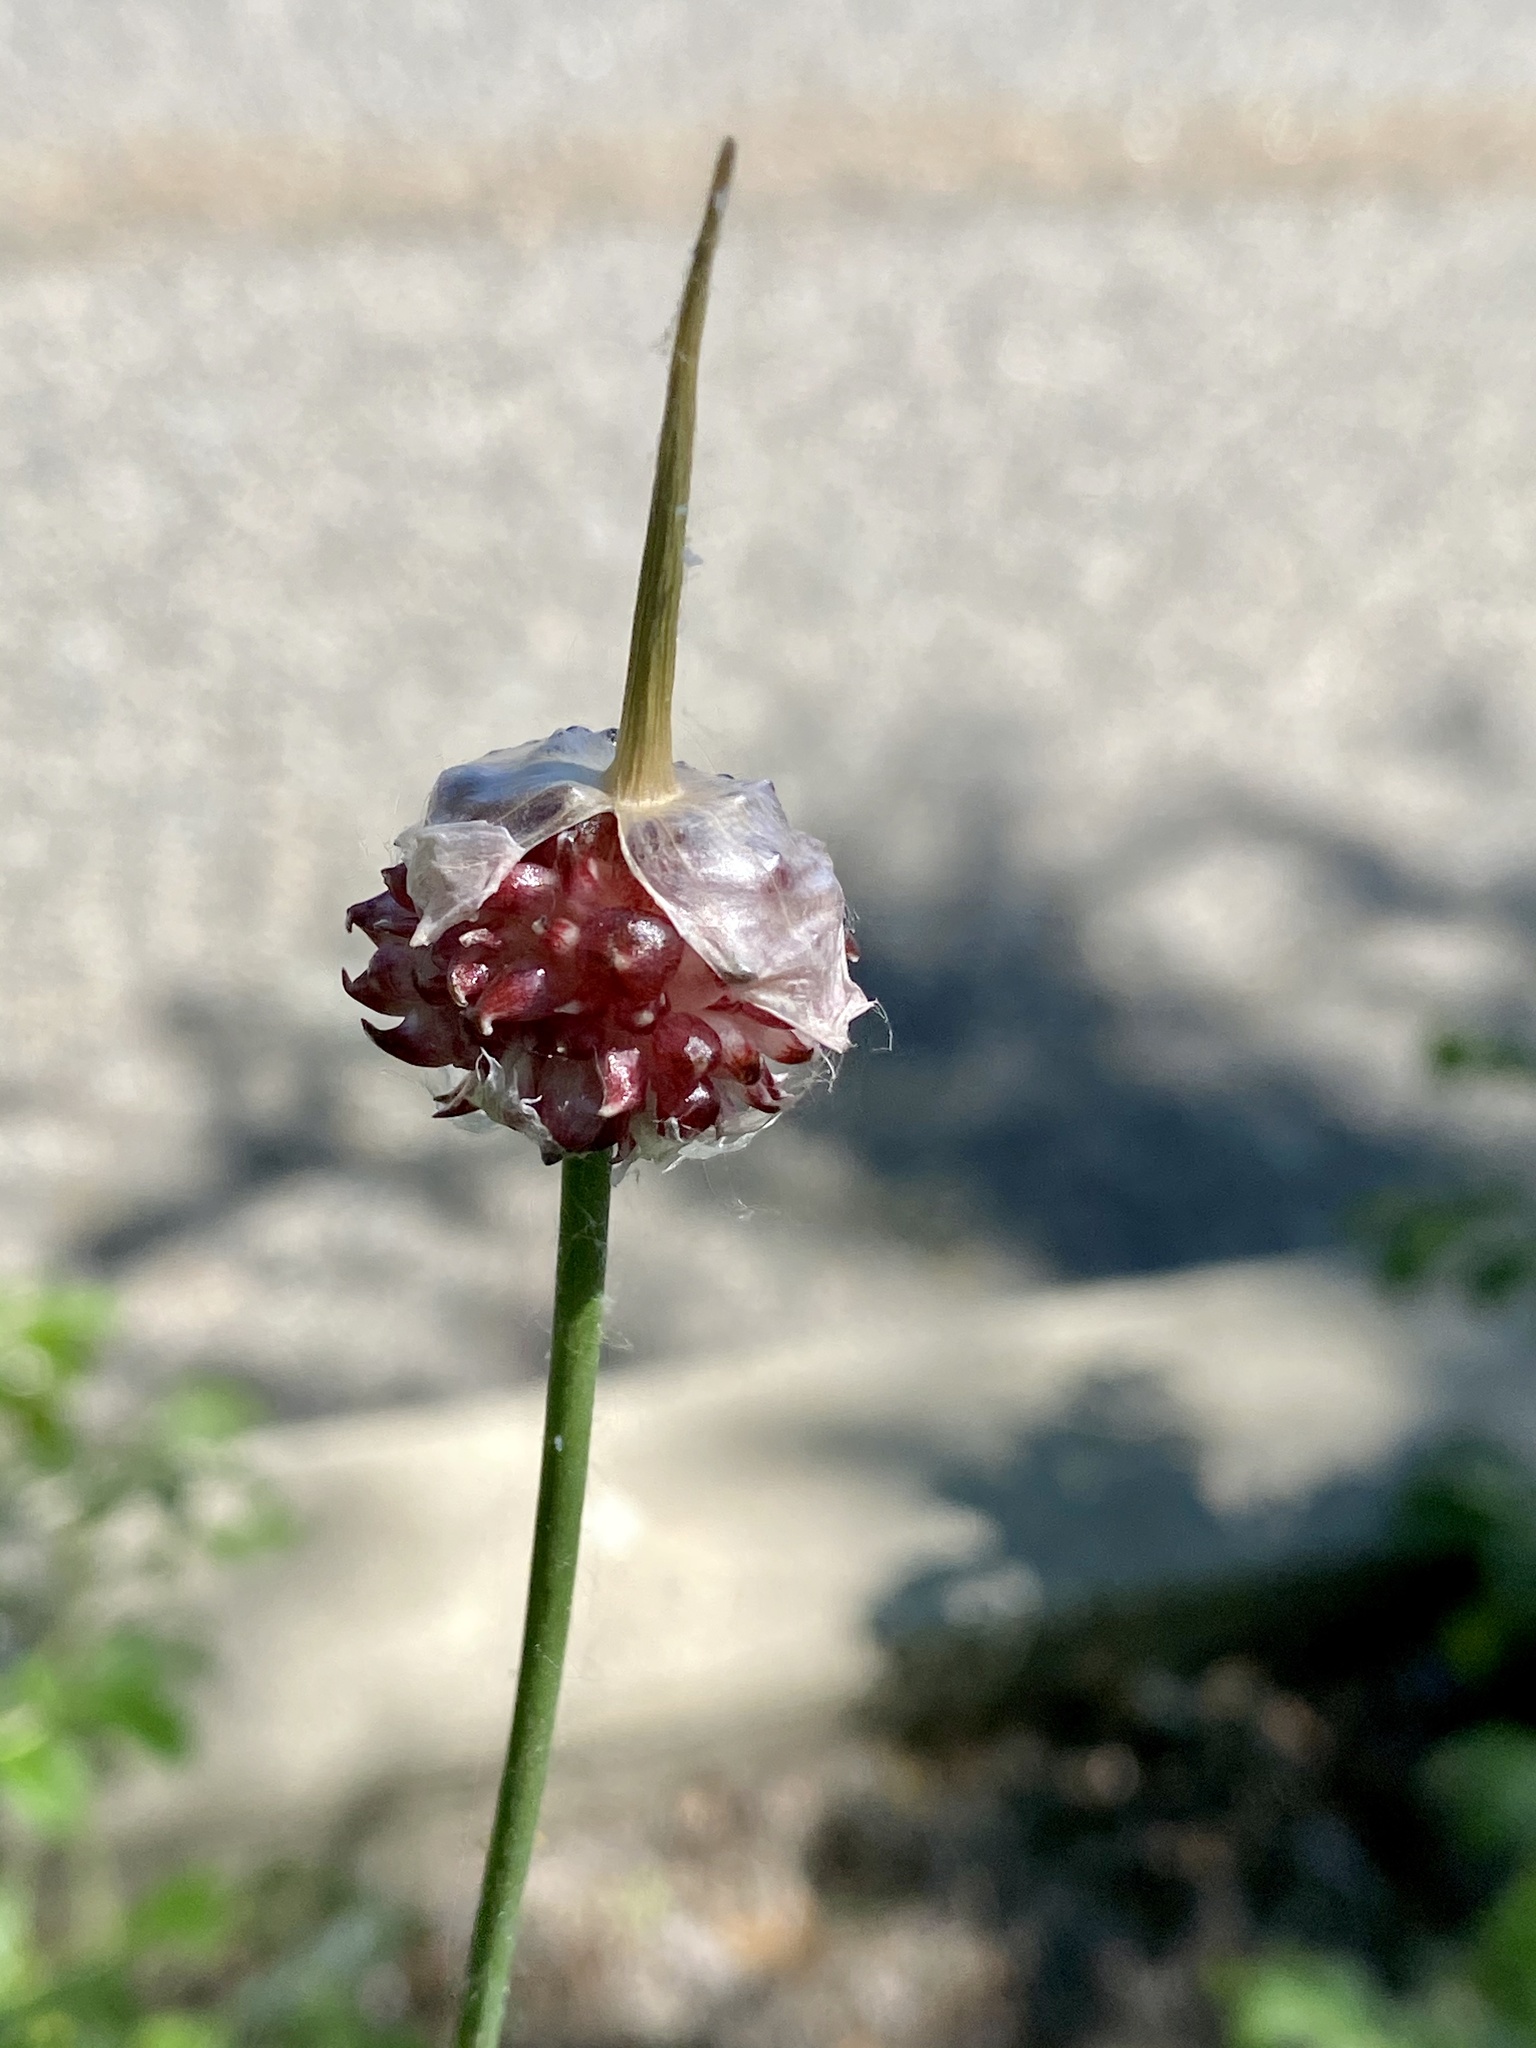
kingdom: Plantae
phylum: Tracheophyta
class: Liliopsida
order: Asparagales
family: Amaryllidaceae
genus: Allium
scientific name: Allium vineale
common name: Crow garlic
